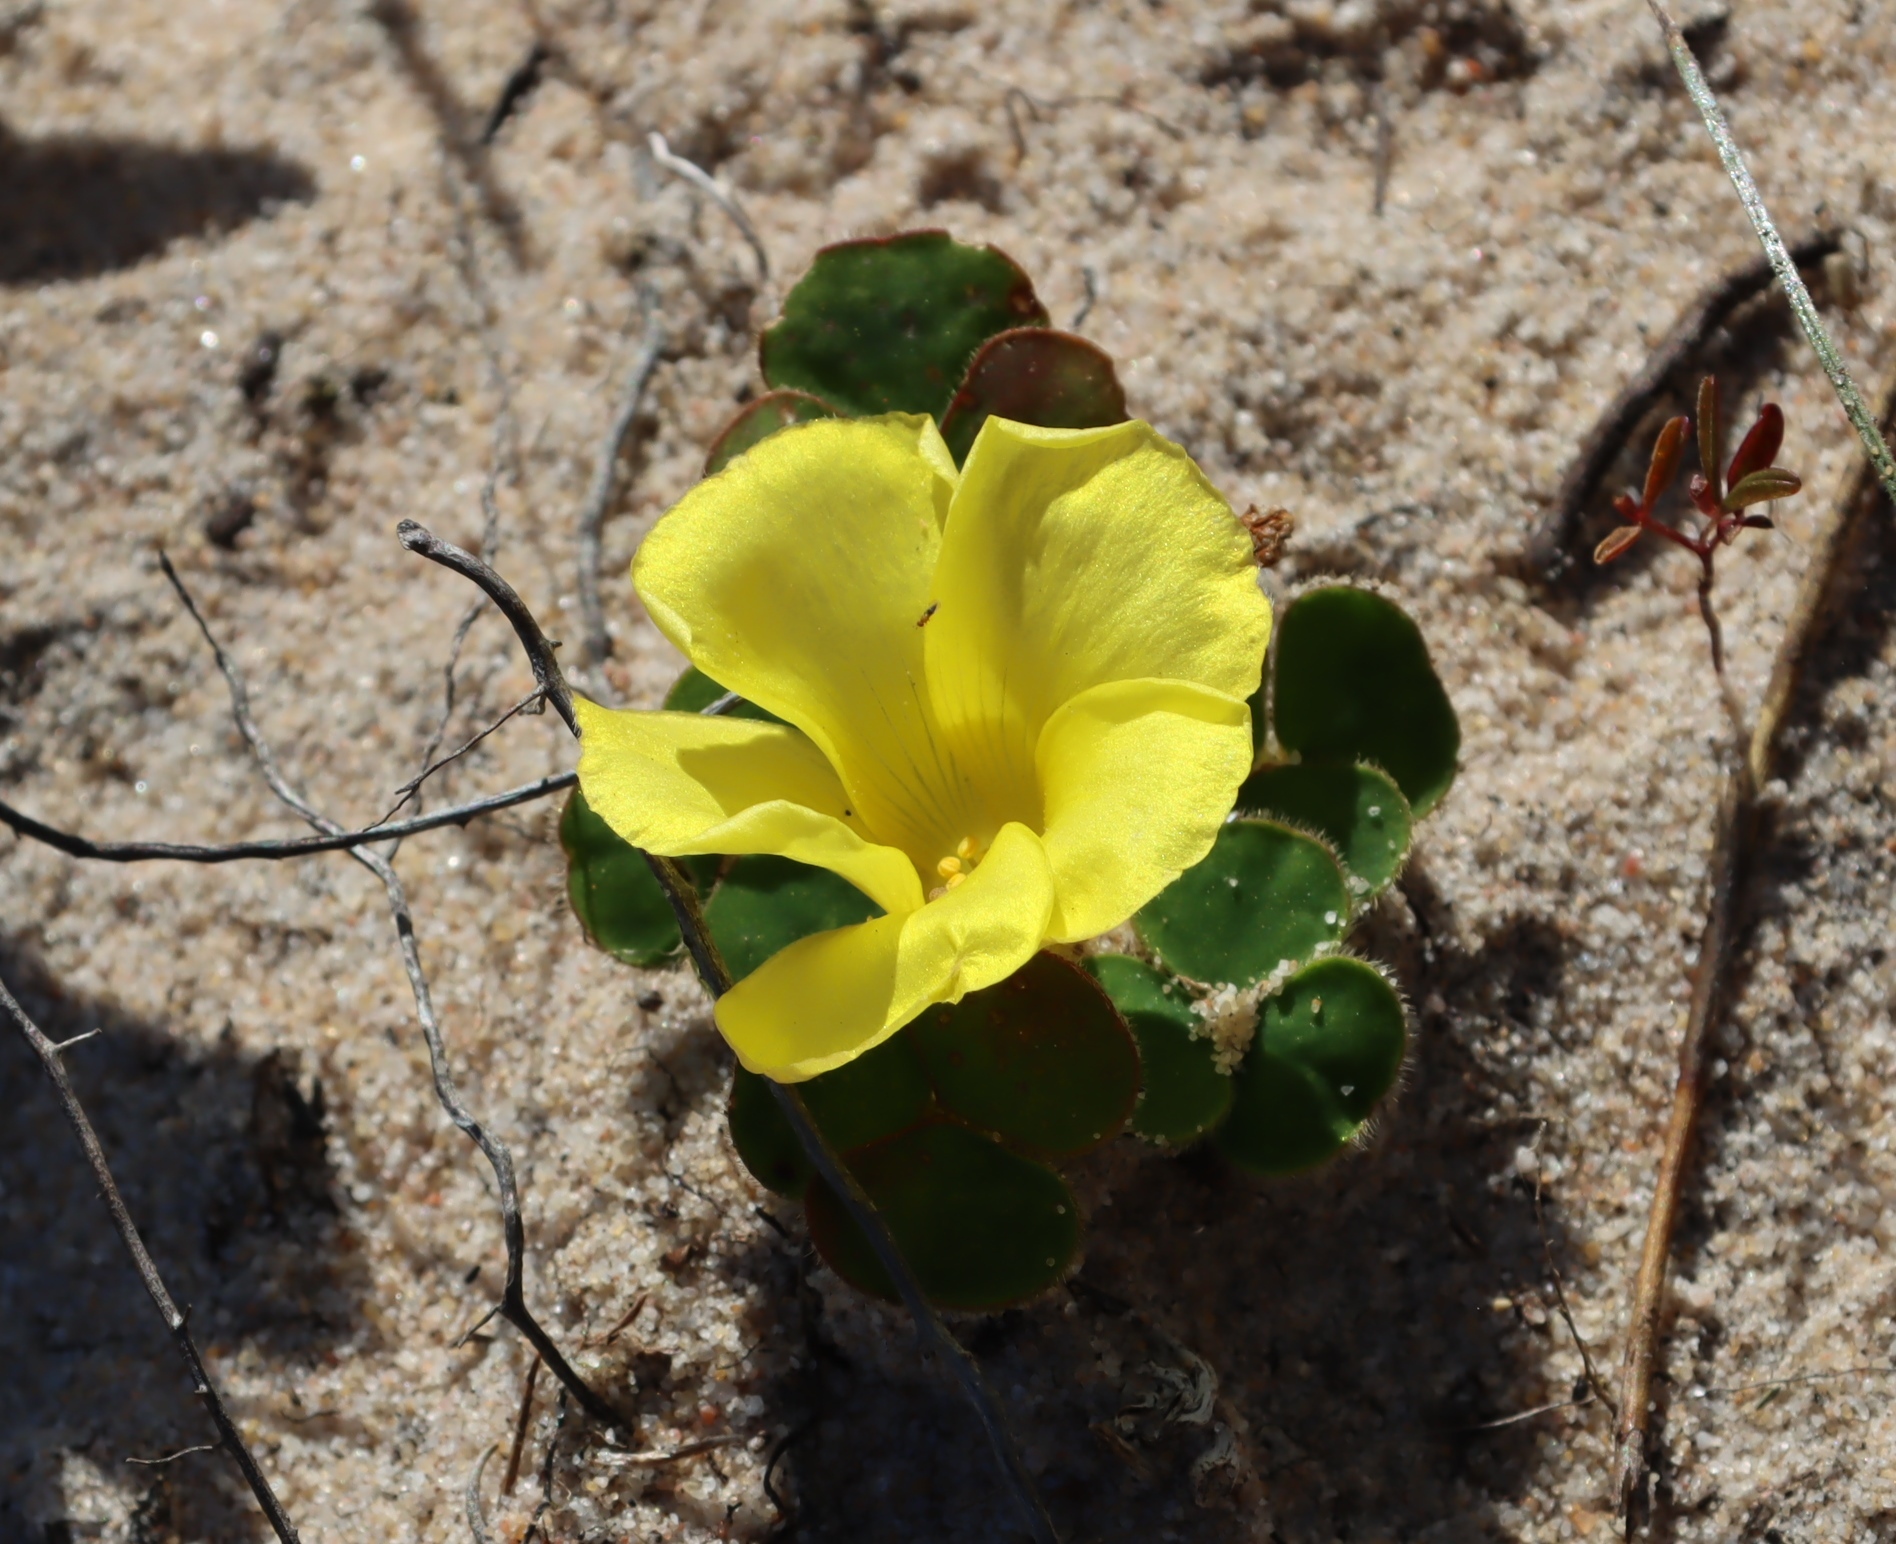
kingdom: Plantae
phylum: Tracheophyta
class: Magnoliopsida
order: Oxalidales
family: Oxalidaceae
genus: Oxalis
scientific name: Oxalis luteola
